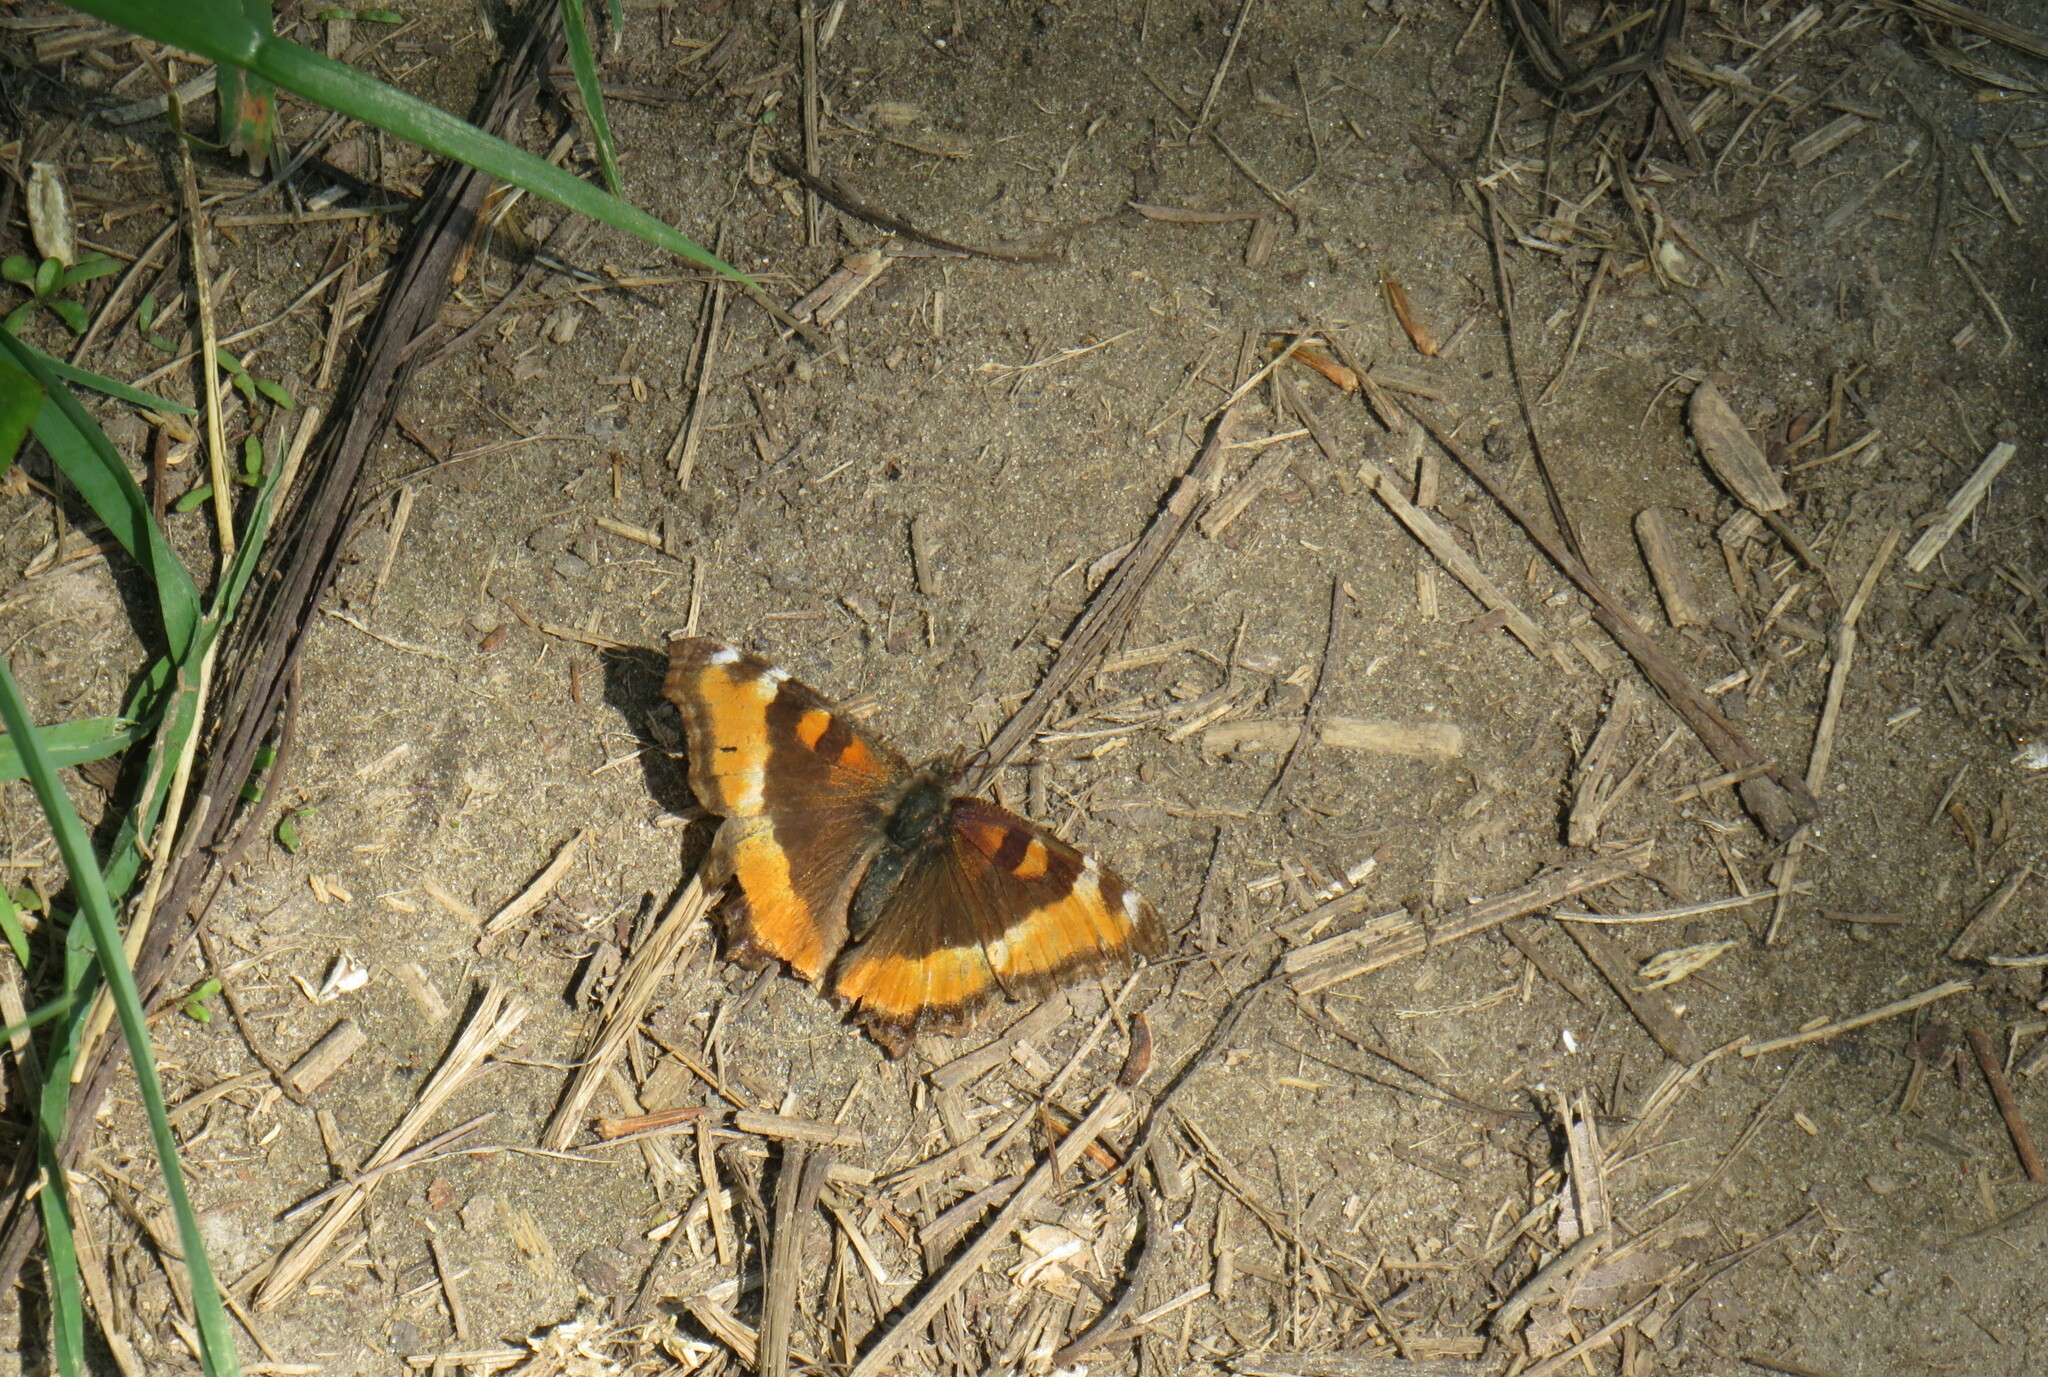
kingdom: Animalia
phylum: Arthropoda
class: Insecta
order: Lepidoptera
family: Nymphalidae
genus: Aglais
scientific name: Aglais milberti
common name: Milbert's tortoiseshell
